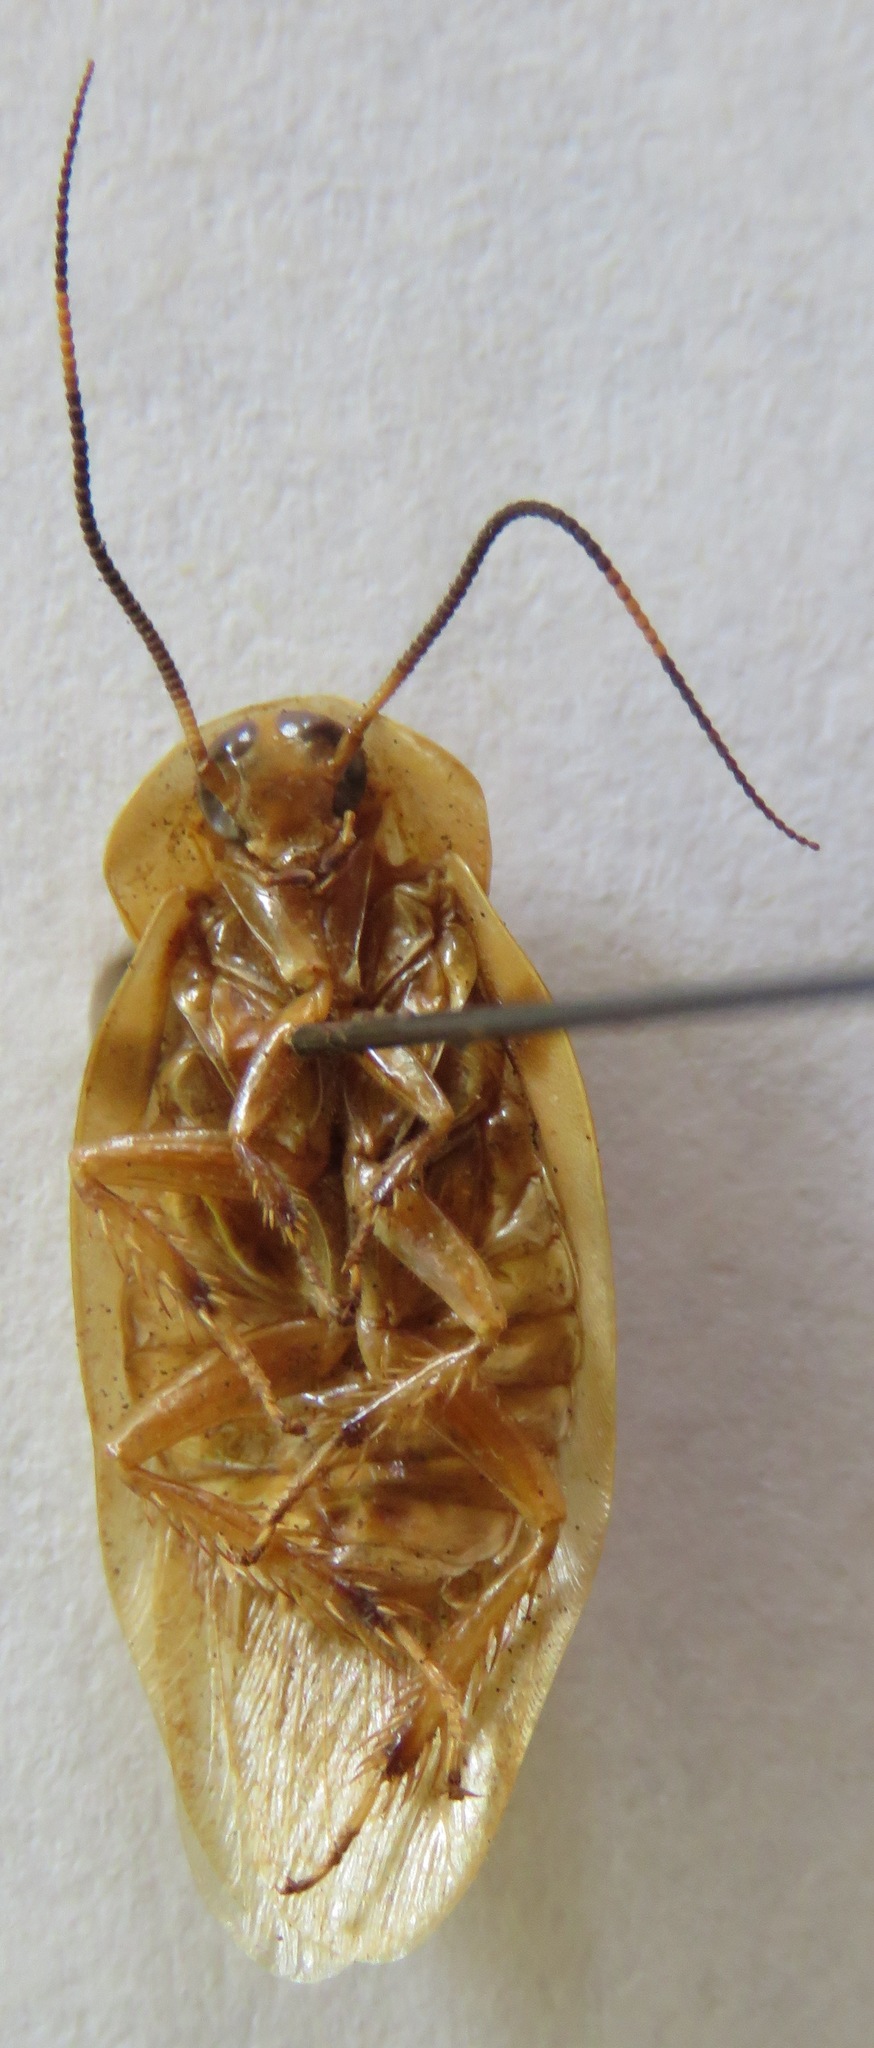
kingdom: Animalia
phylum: Arthropoda
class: Insecta
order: Blattodea
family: Blaberidae
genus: Achroblatta
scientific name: Achroblatta luteola
